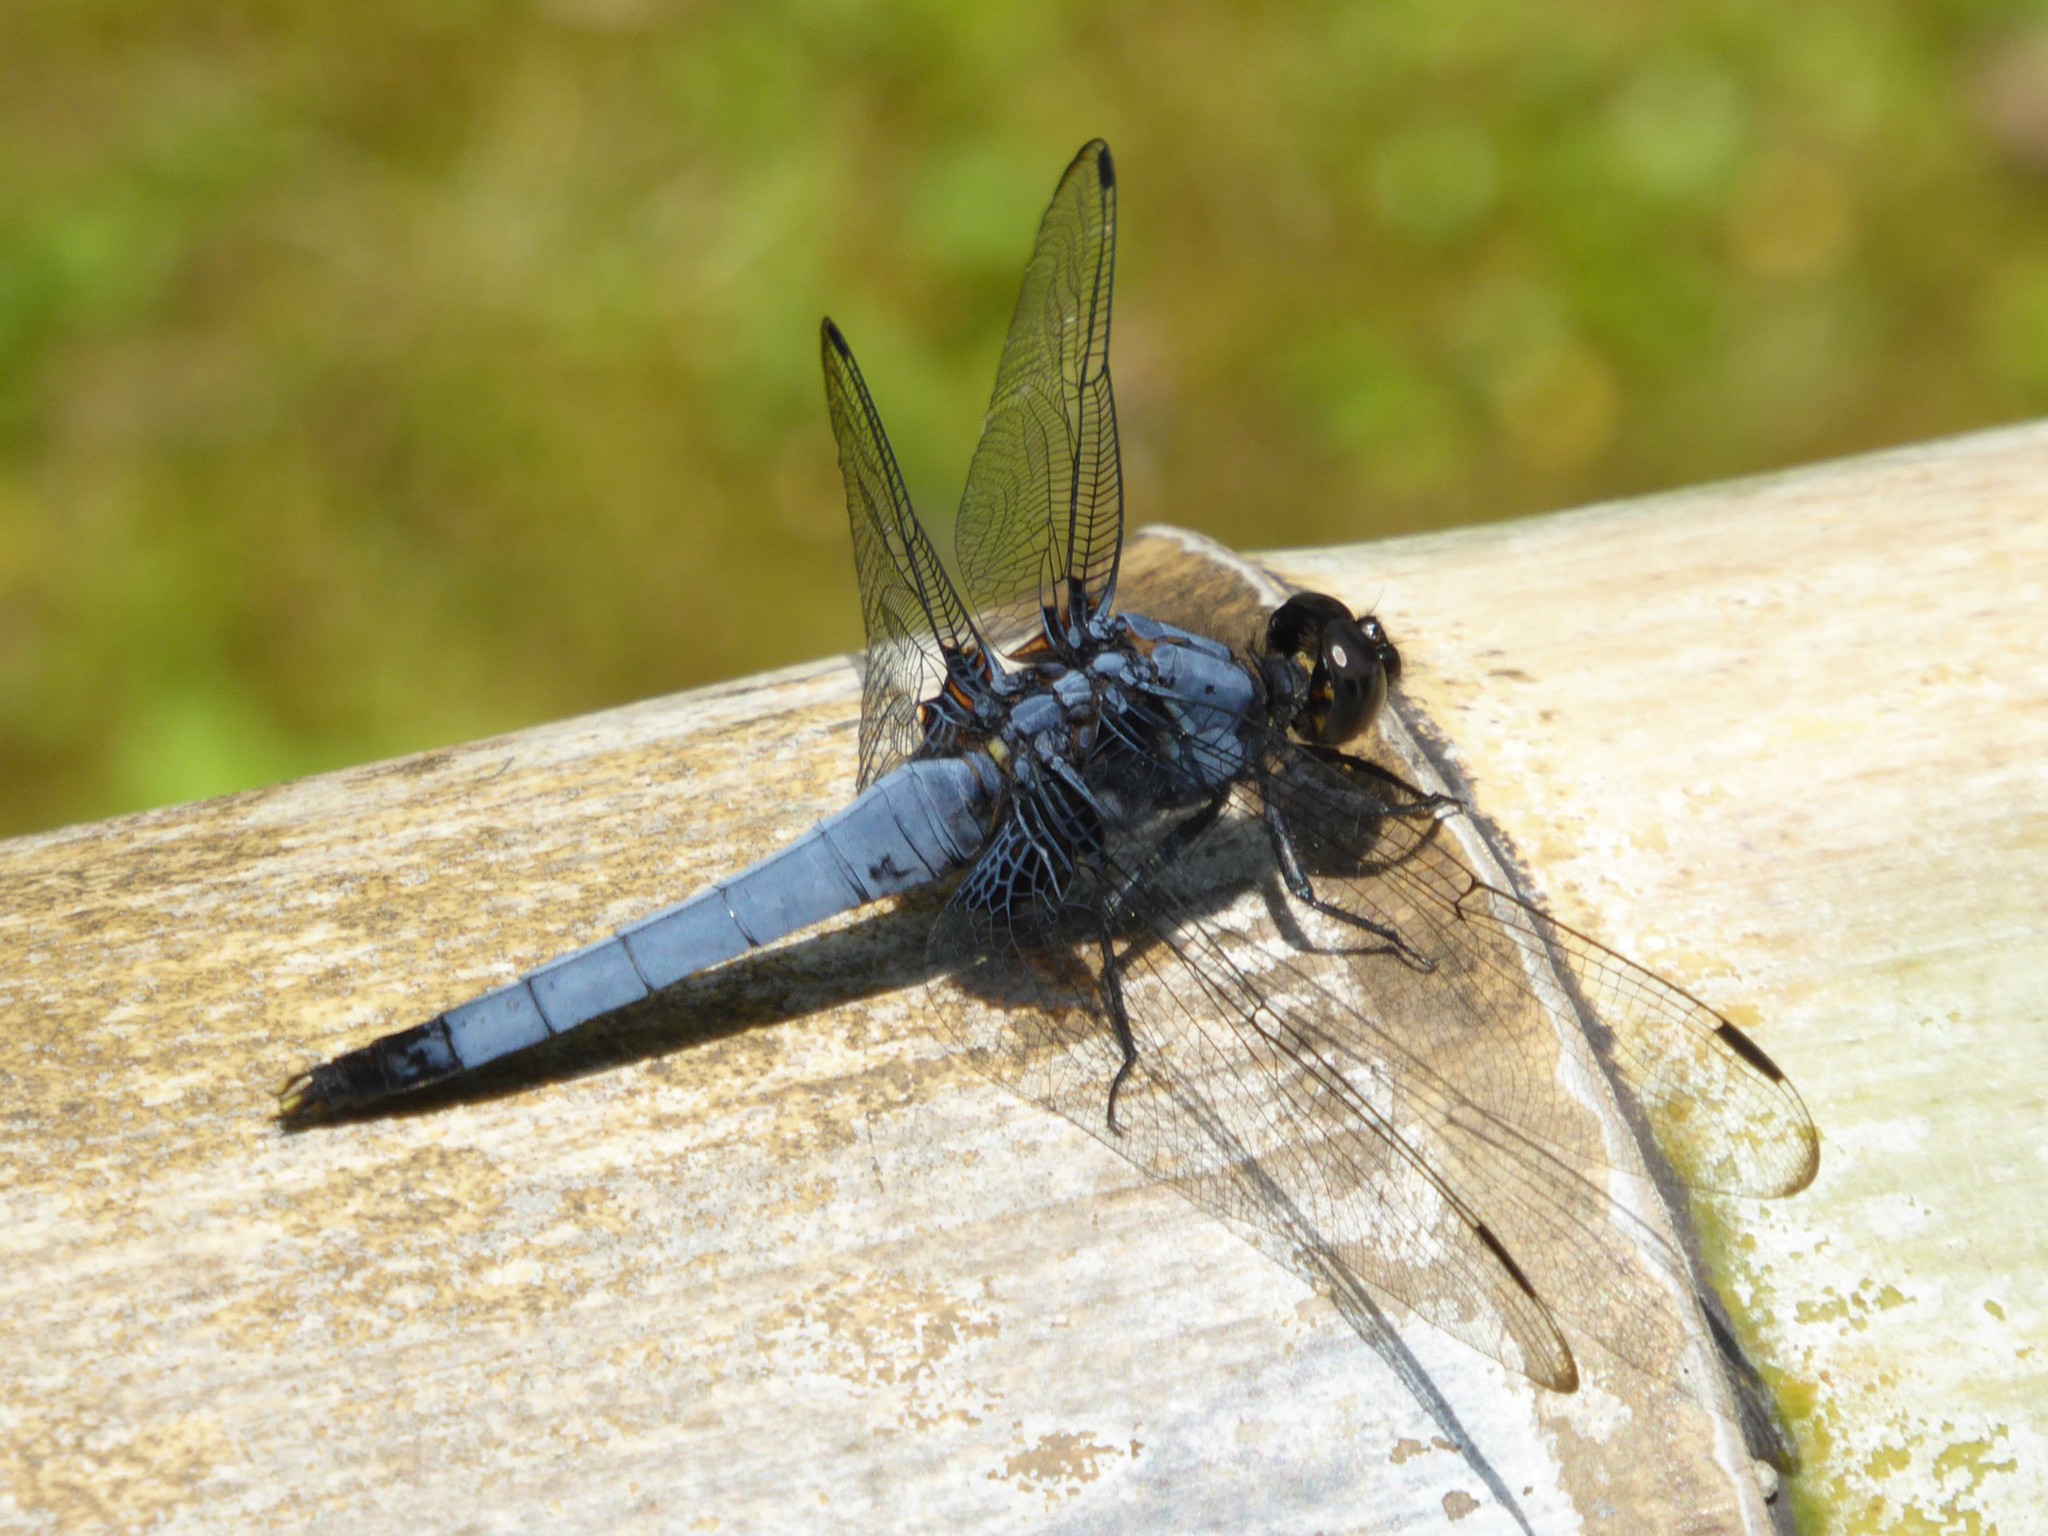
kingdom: Animalia
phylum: Arthropoda
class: Insecta
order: Odonata
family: Libellulidae
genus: Orthetrum
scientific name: Orthetrum melania
